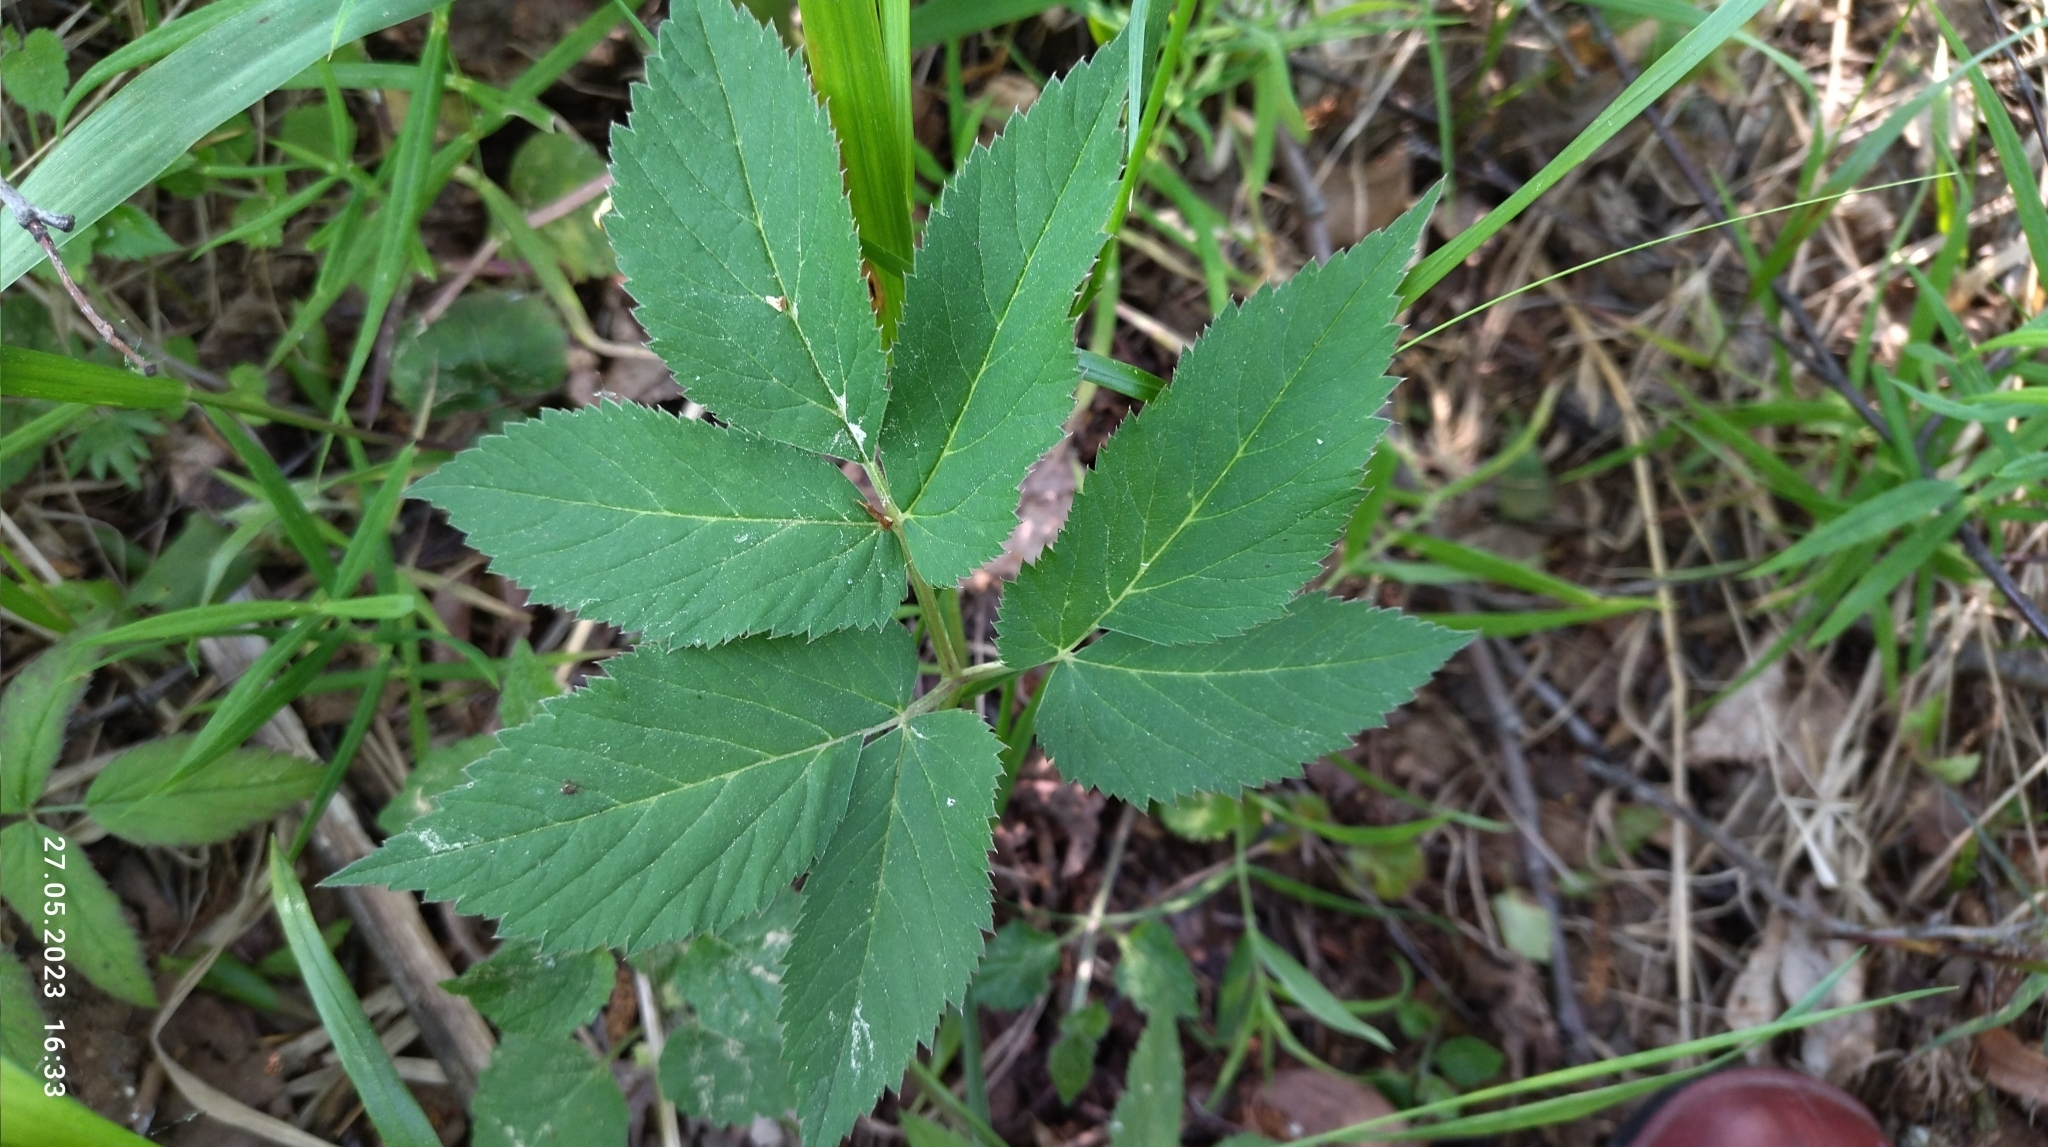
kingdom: Plantae
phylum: Tracheophyta
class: Magnoliopsida
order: Apiales
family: Apiaceae
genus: Aegopodium
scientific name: Aegopodium podagraria
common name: Ground-elder
